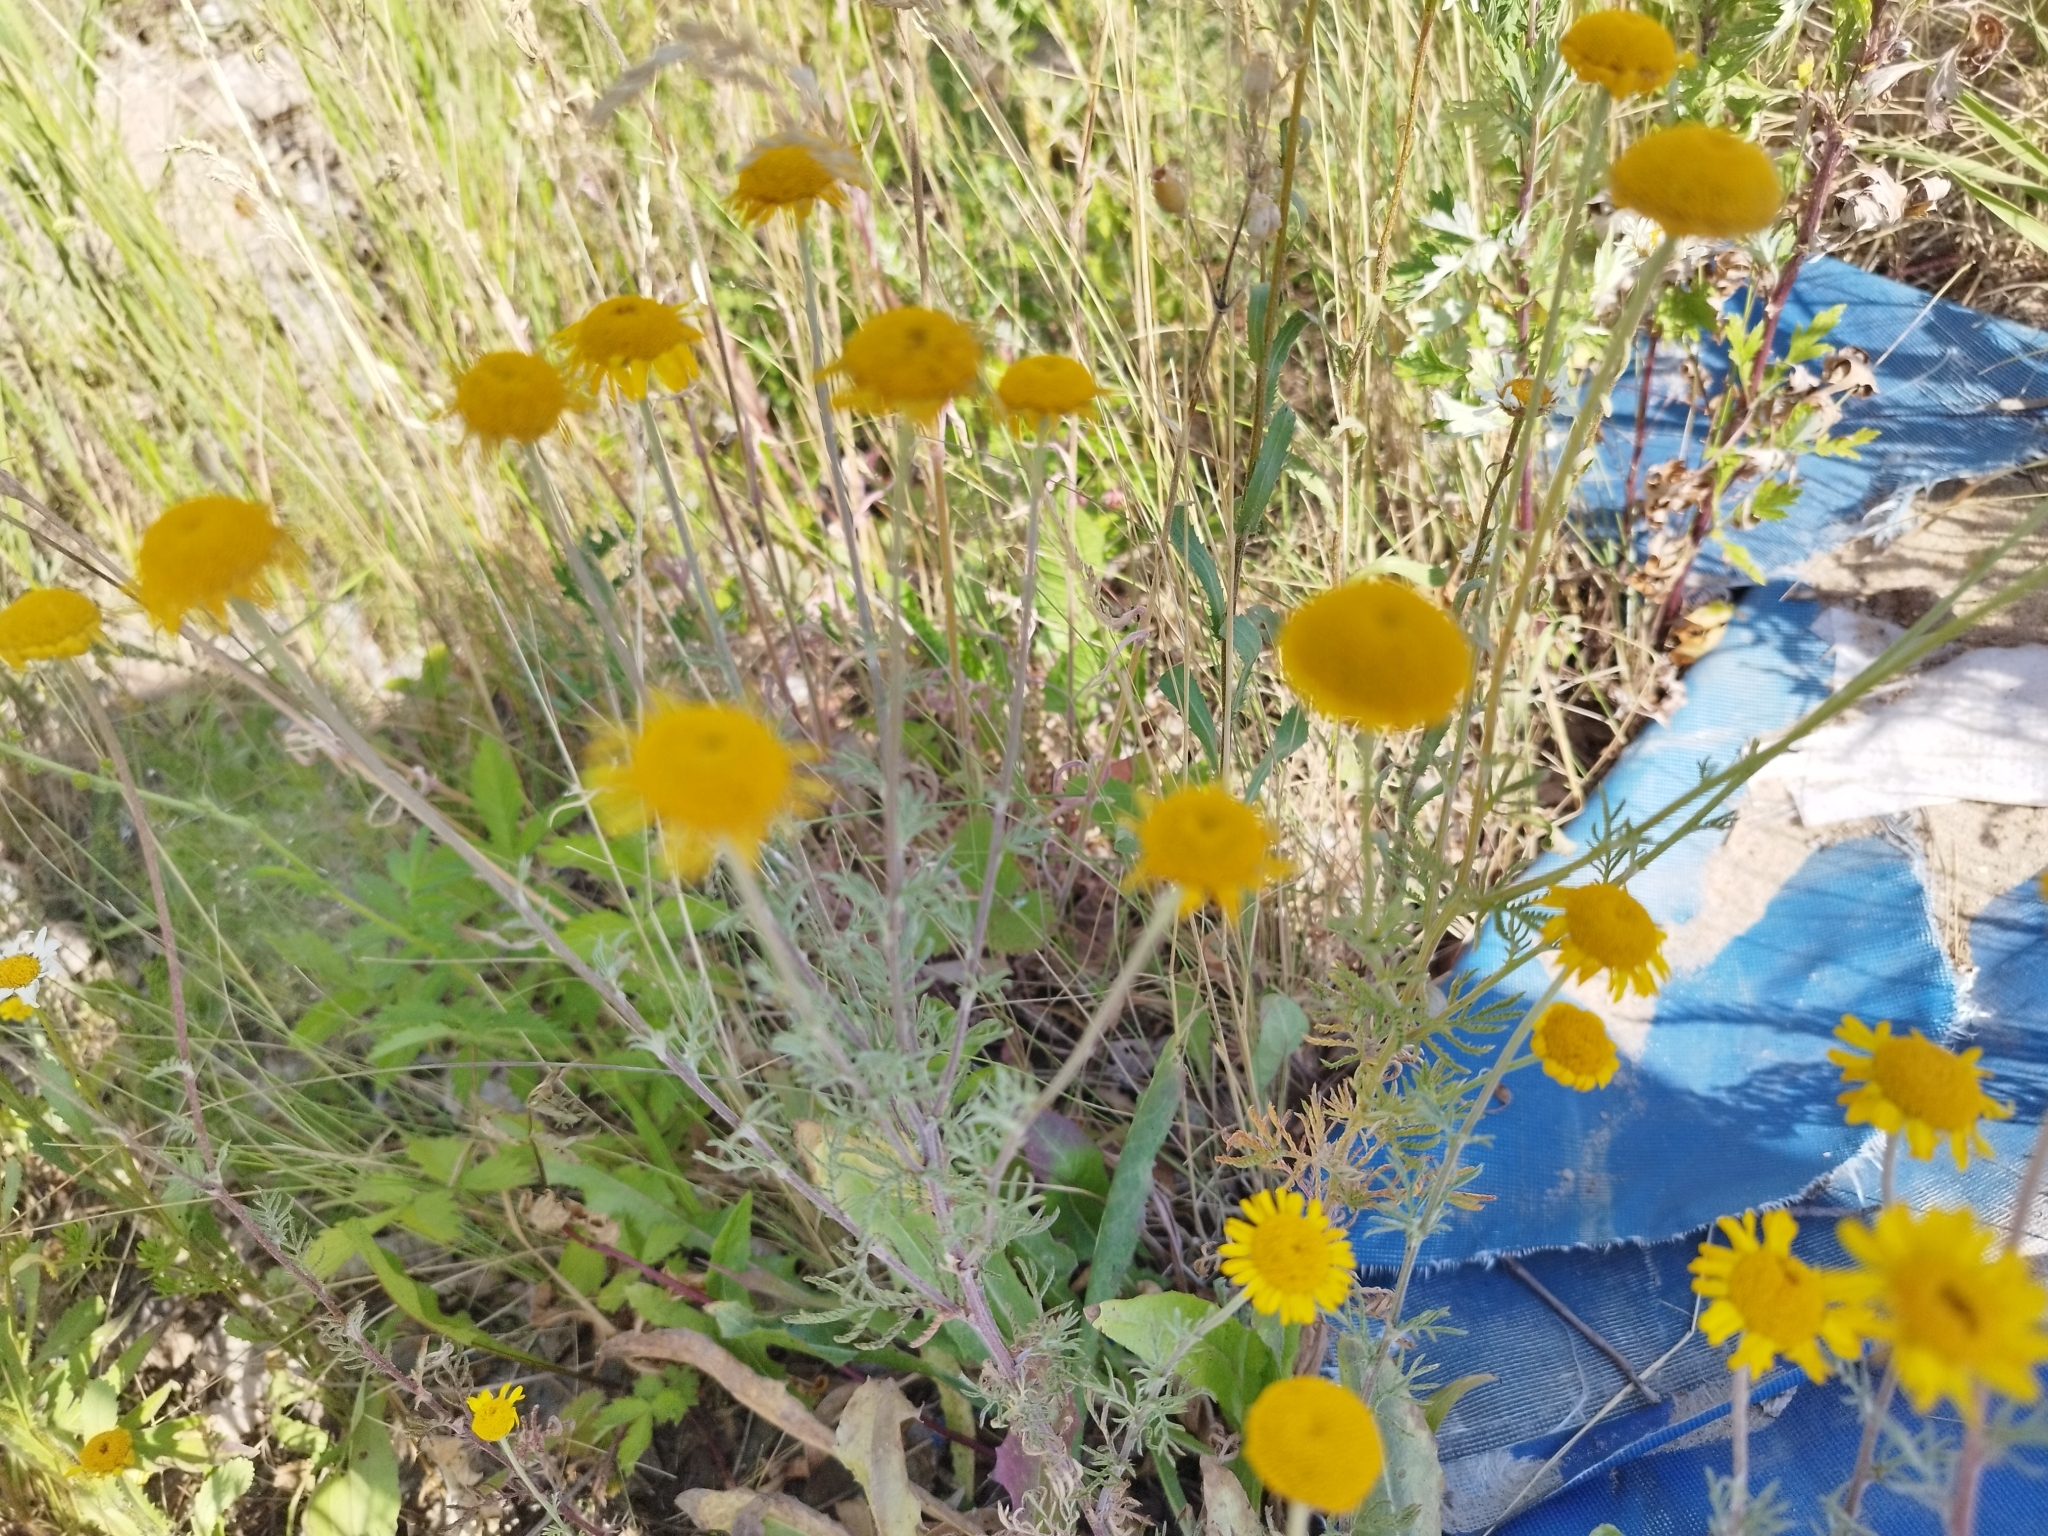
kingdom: Plantae
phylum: Tracheophyta
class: Magnoliopsida
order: Asterales
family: Asteraceae
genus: Cota
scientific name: Cota tinctoria
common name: Golden chamomile
